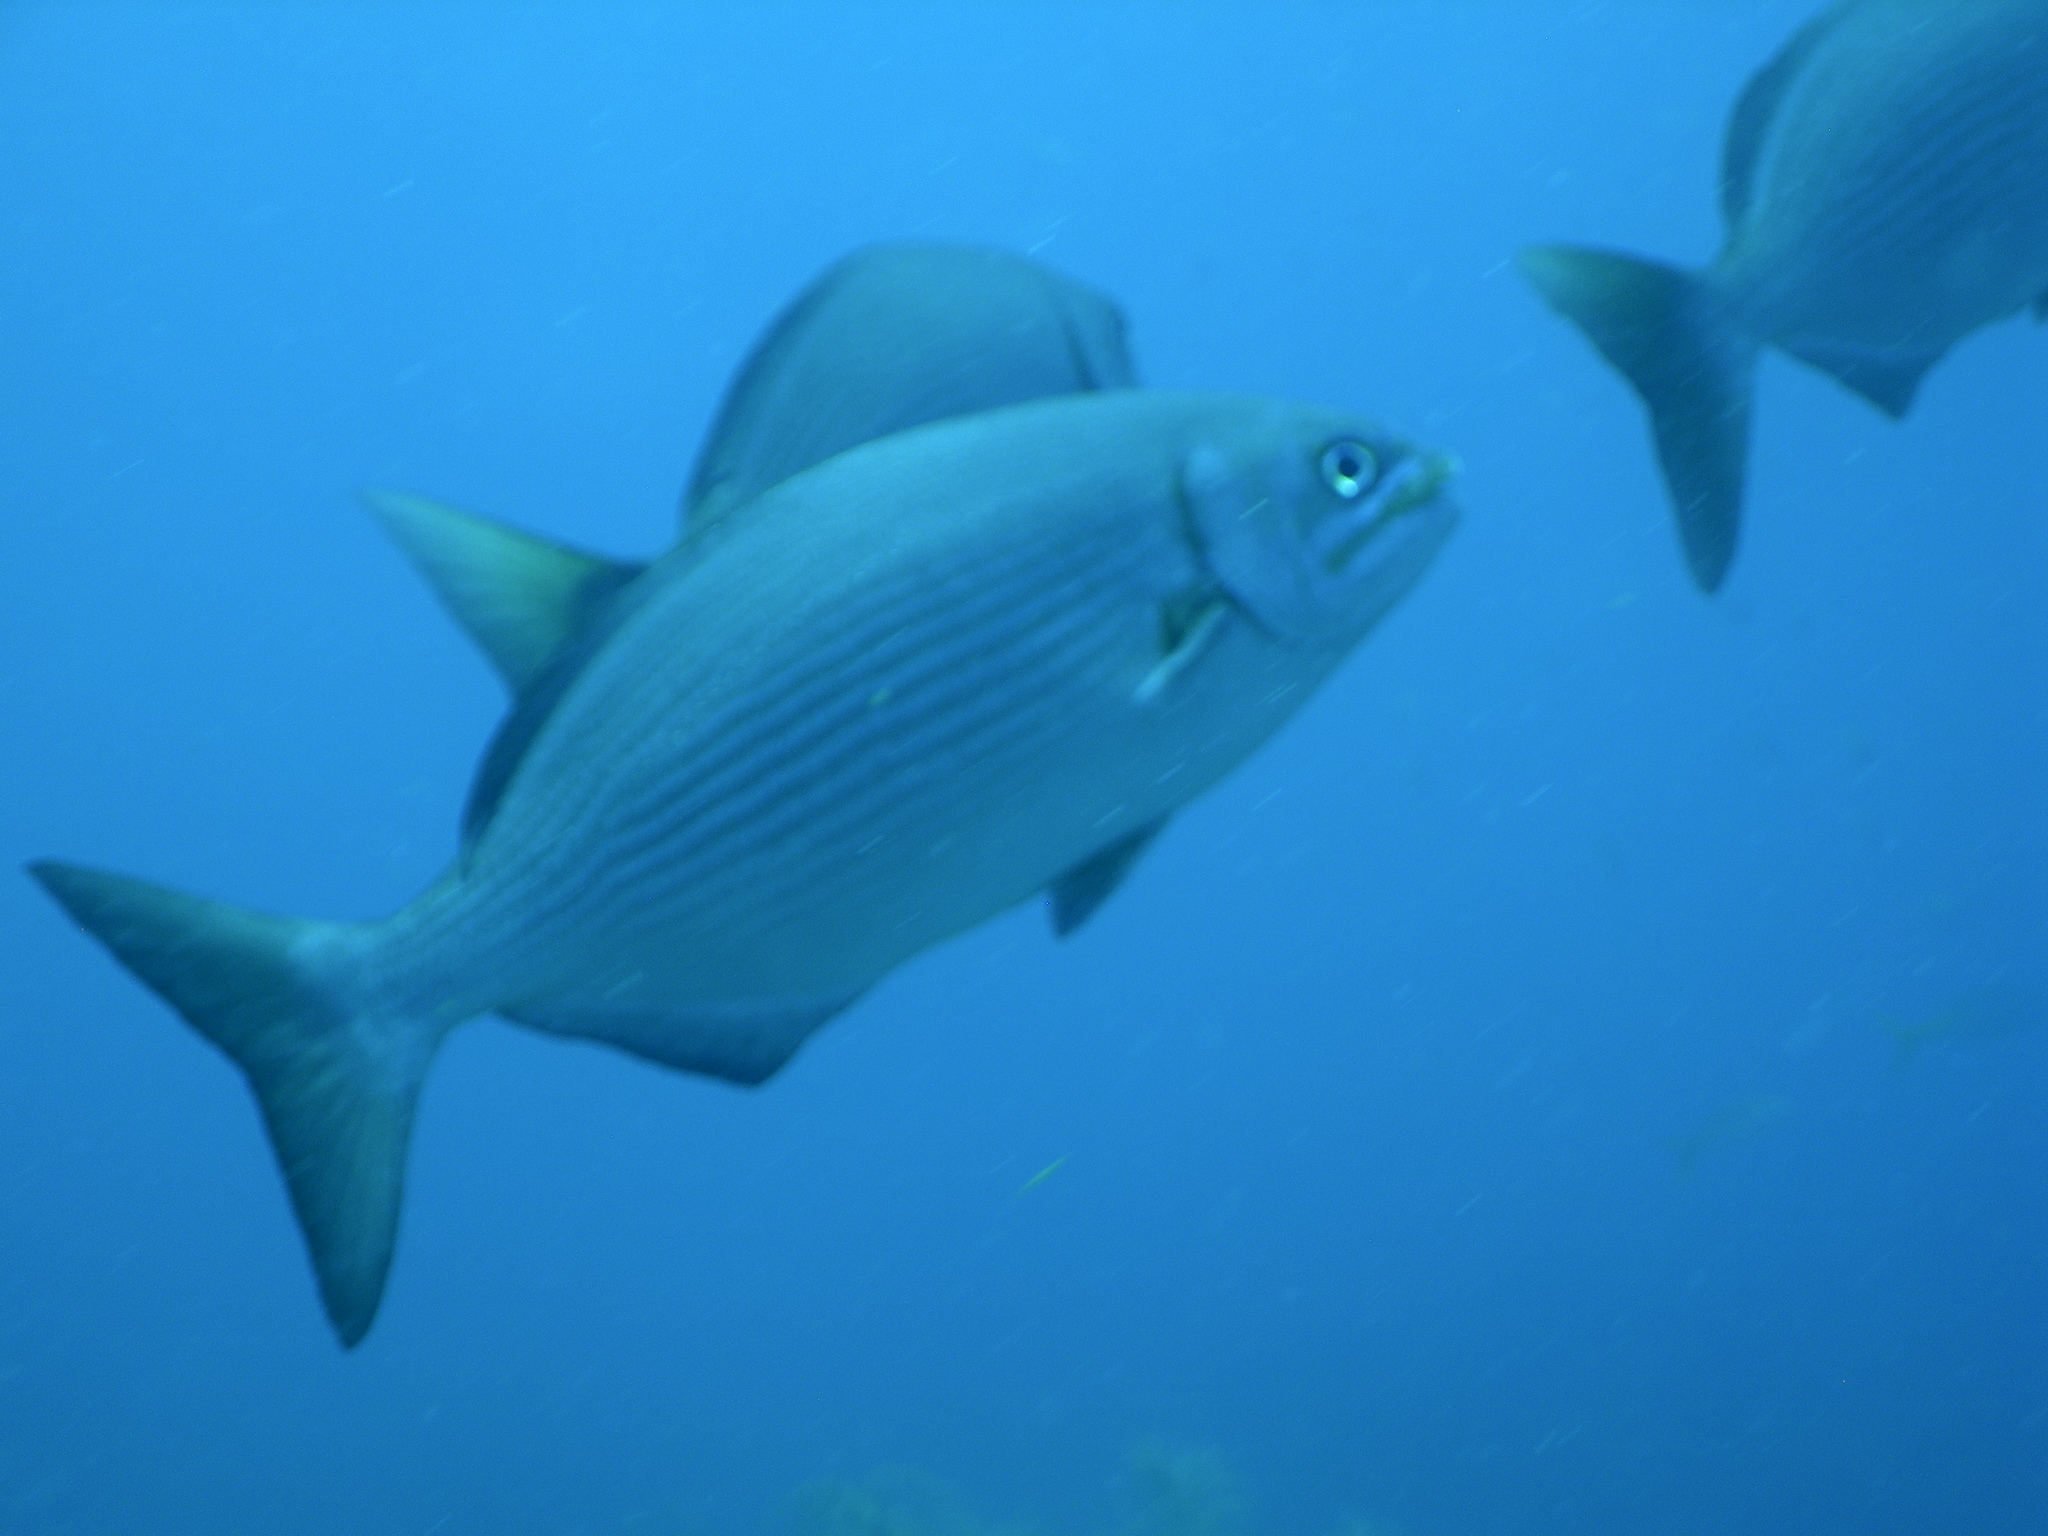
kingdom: Animalia
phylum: Chordata
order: Perciformes
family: Kyphosidae
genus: Kyphosus
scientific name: Kyphosus vaigiensis
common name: Brassy chub
